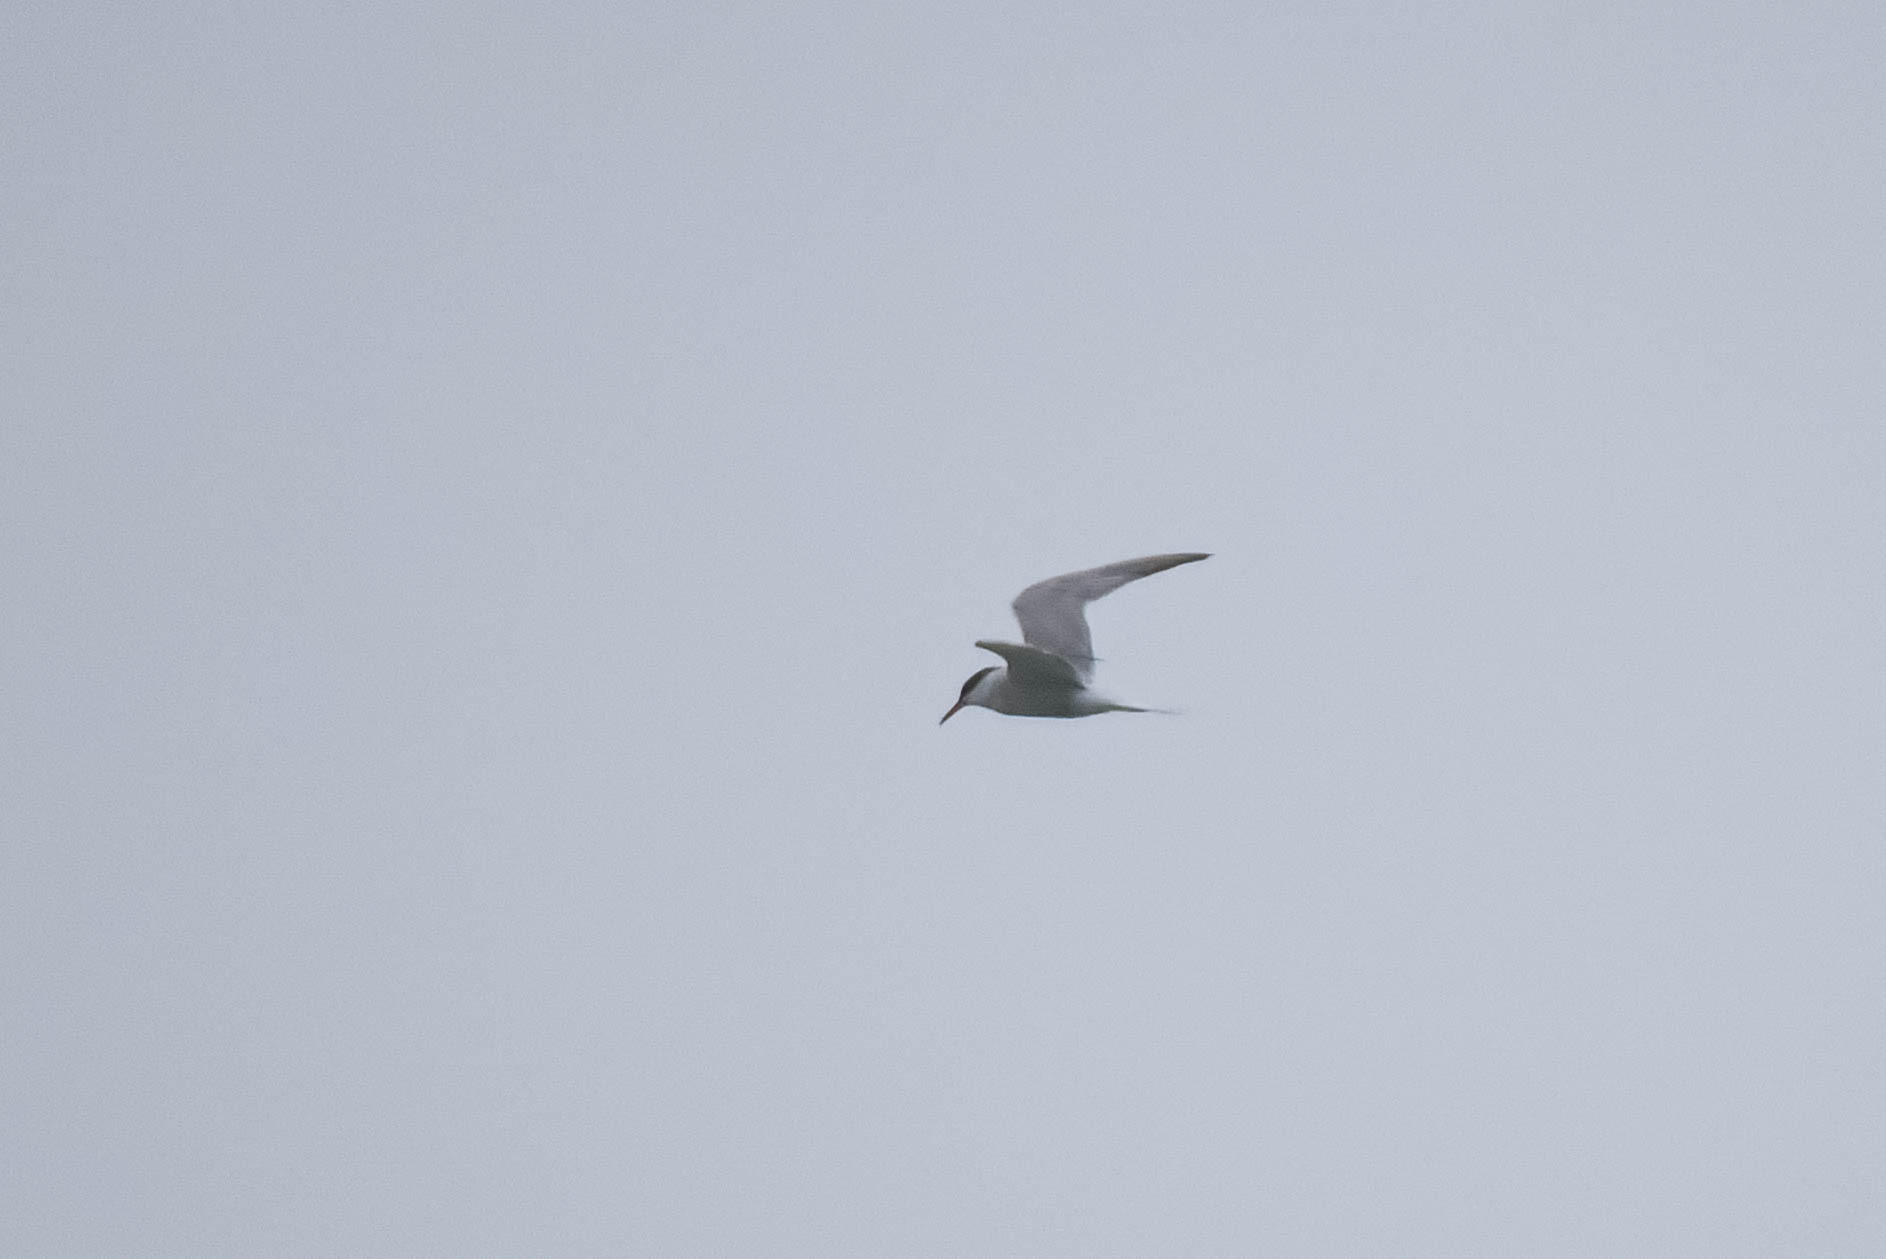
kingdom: Animalia
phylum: Chordata
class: Aves
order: Charadriiformes
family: Laridae
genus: Sterna
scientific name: Sterna hirundo
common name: Common tern
